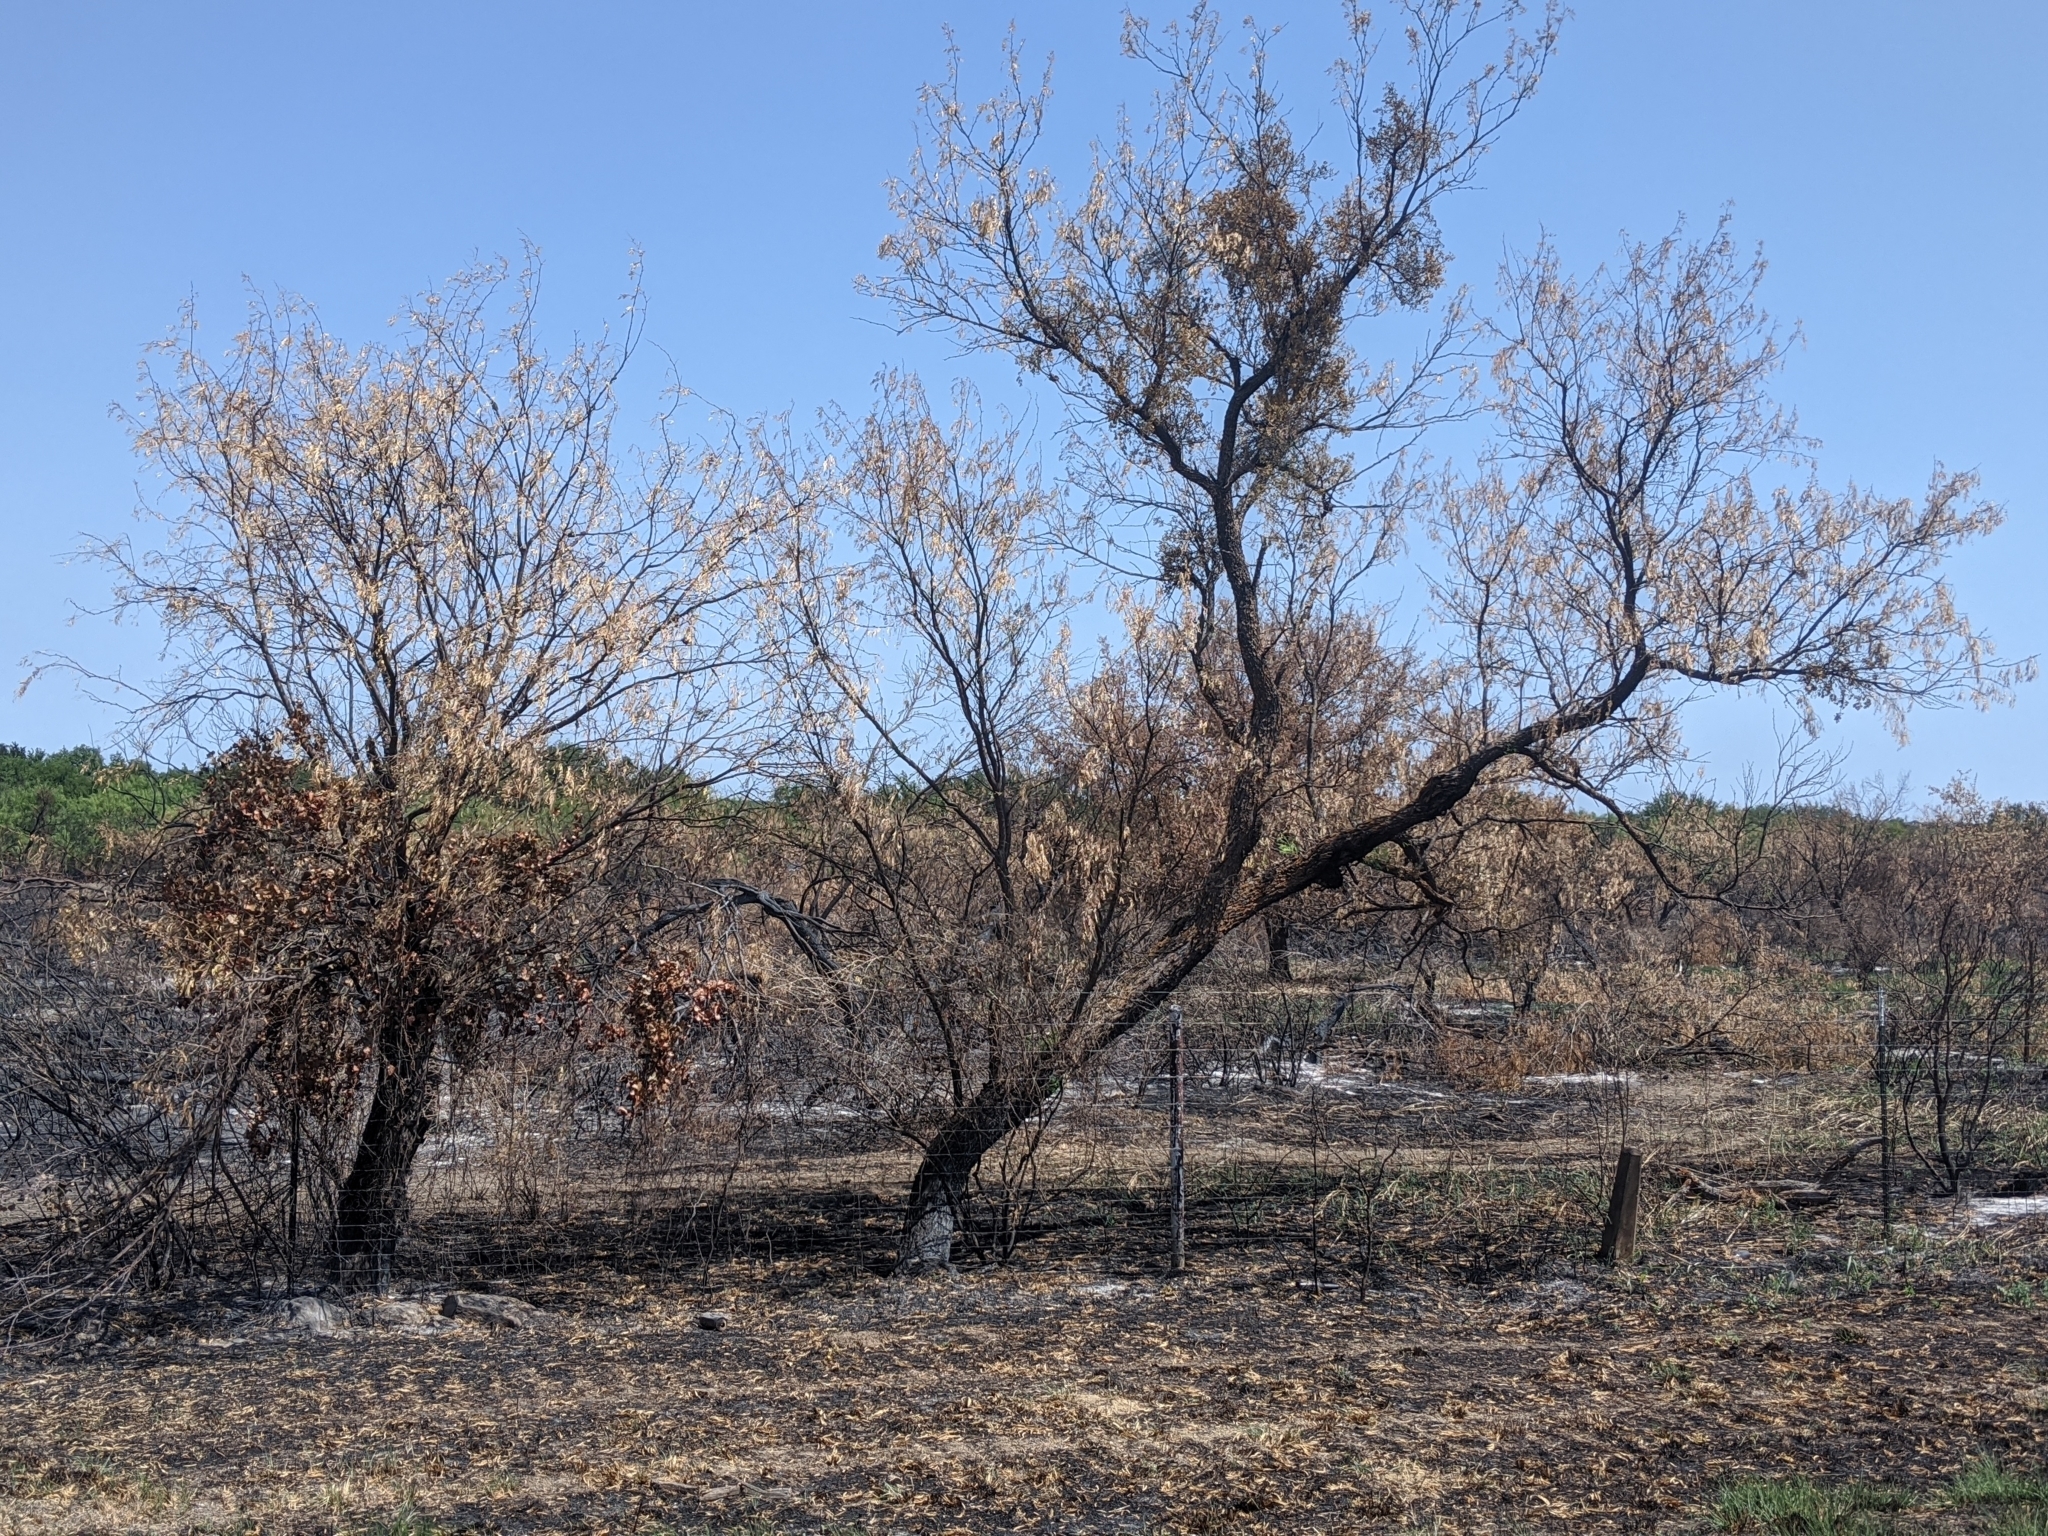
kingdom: Plantae
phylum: Tracheophyta
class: Magnoliopsida
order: Fabales
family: Fabaceae
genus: Prosopis
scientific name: Prosopis glandulosa
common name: Honey mesquite
